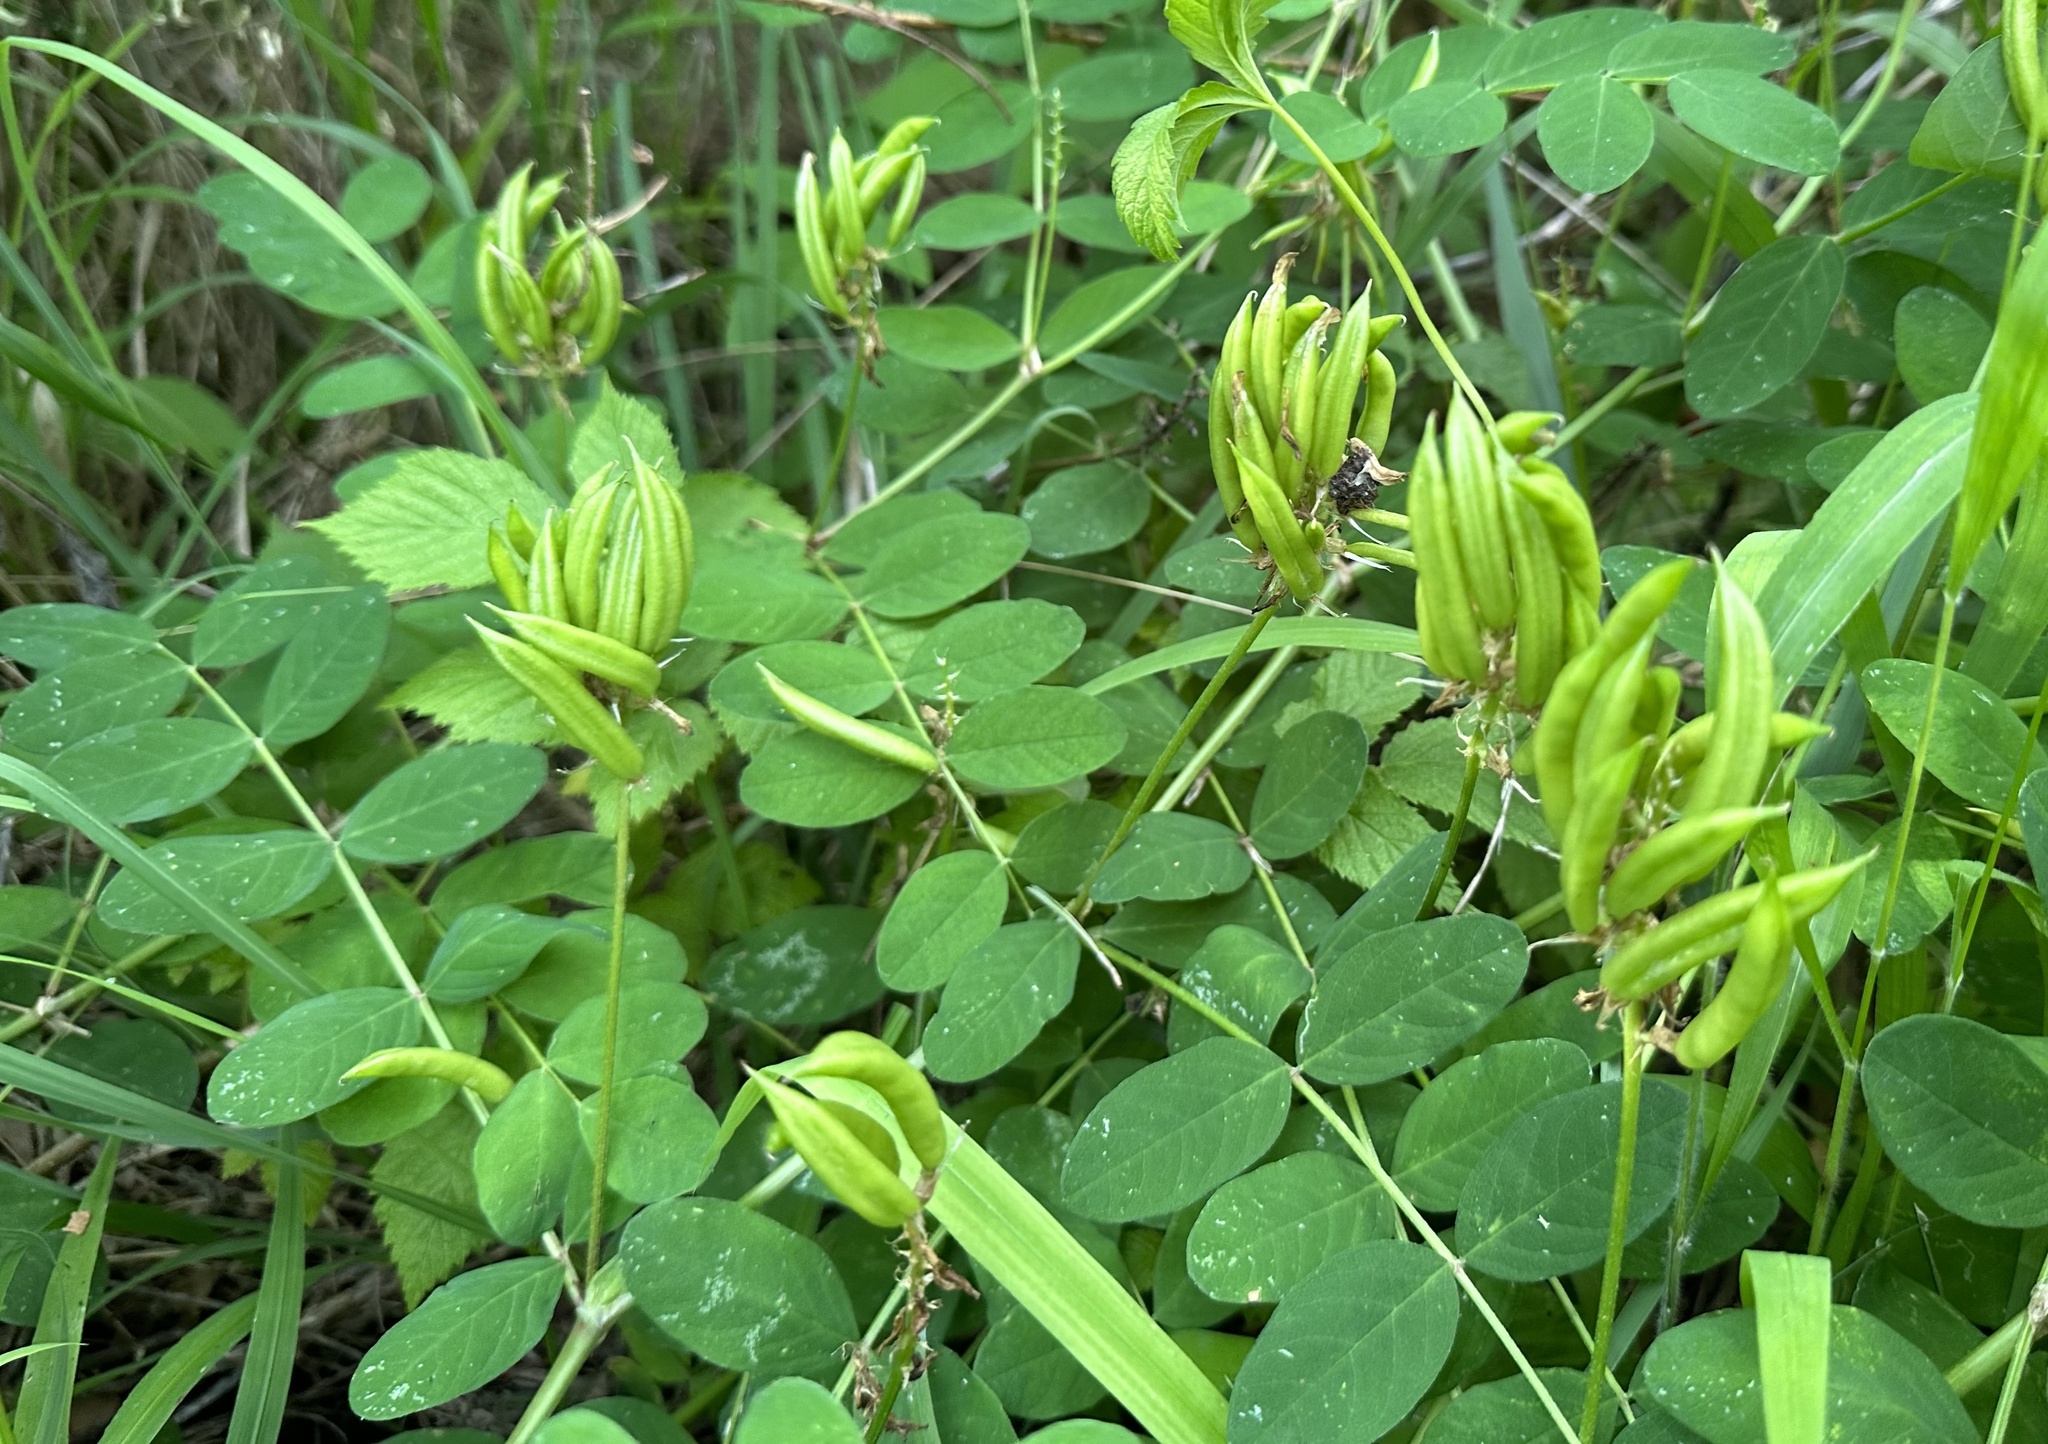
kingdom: Plantae
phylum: Tracheophyta
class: Magnoliopsida
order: Fabales
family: Fabaceae
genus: Astragalus
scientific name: Astragalus glycyphyllos
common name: Wild liquorice
